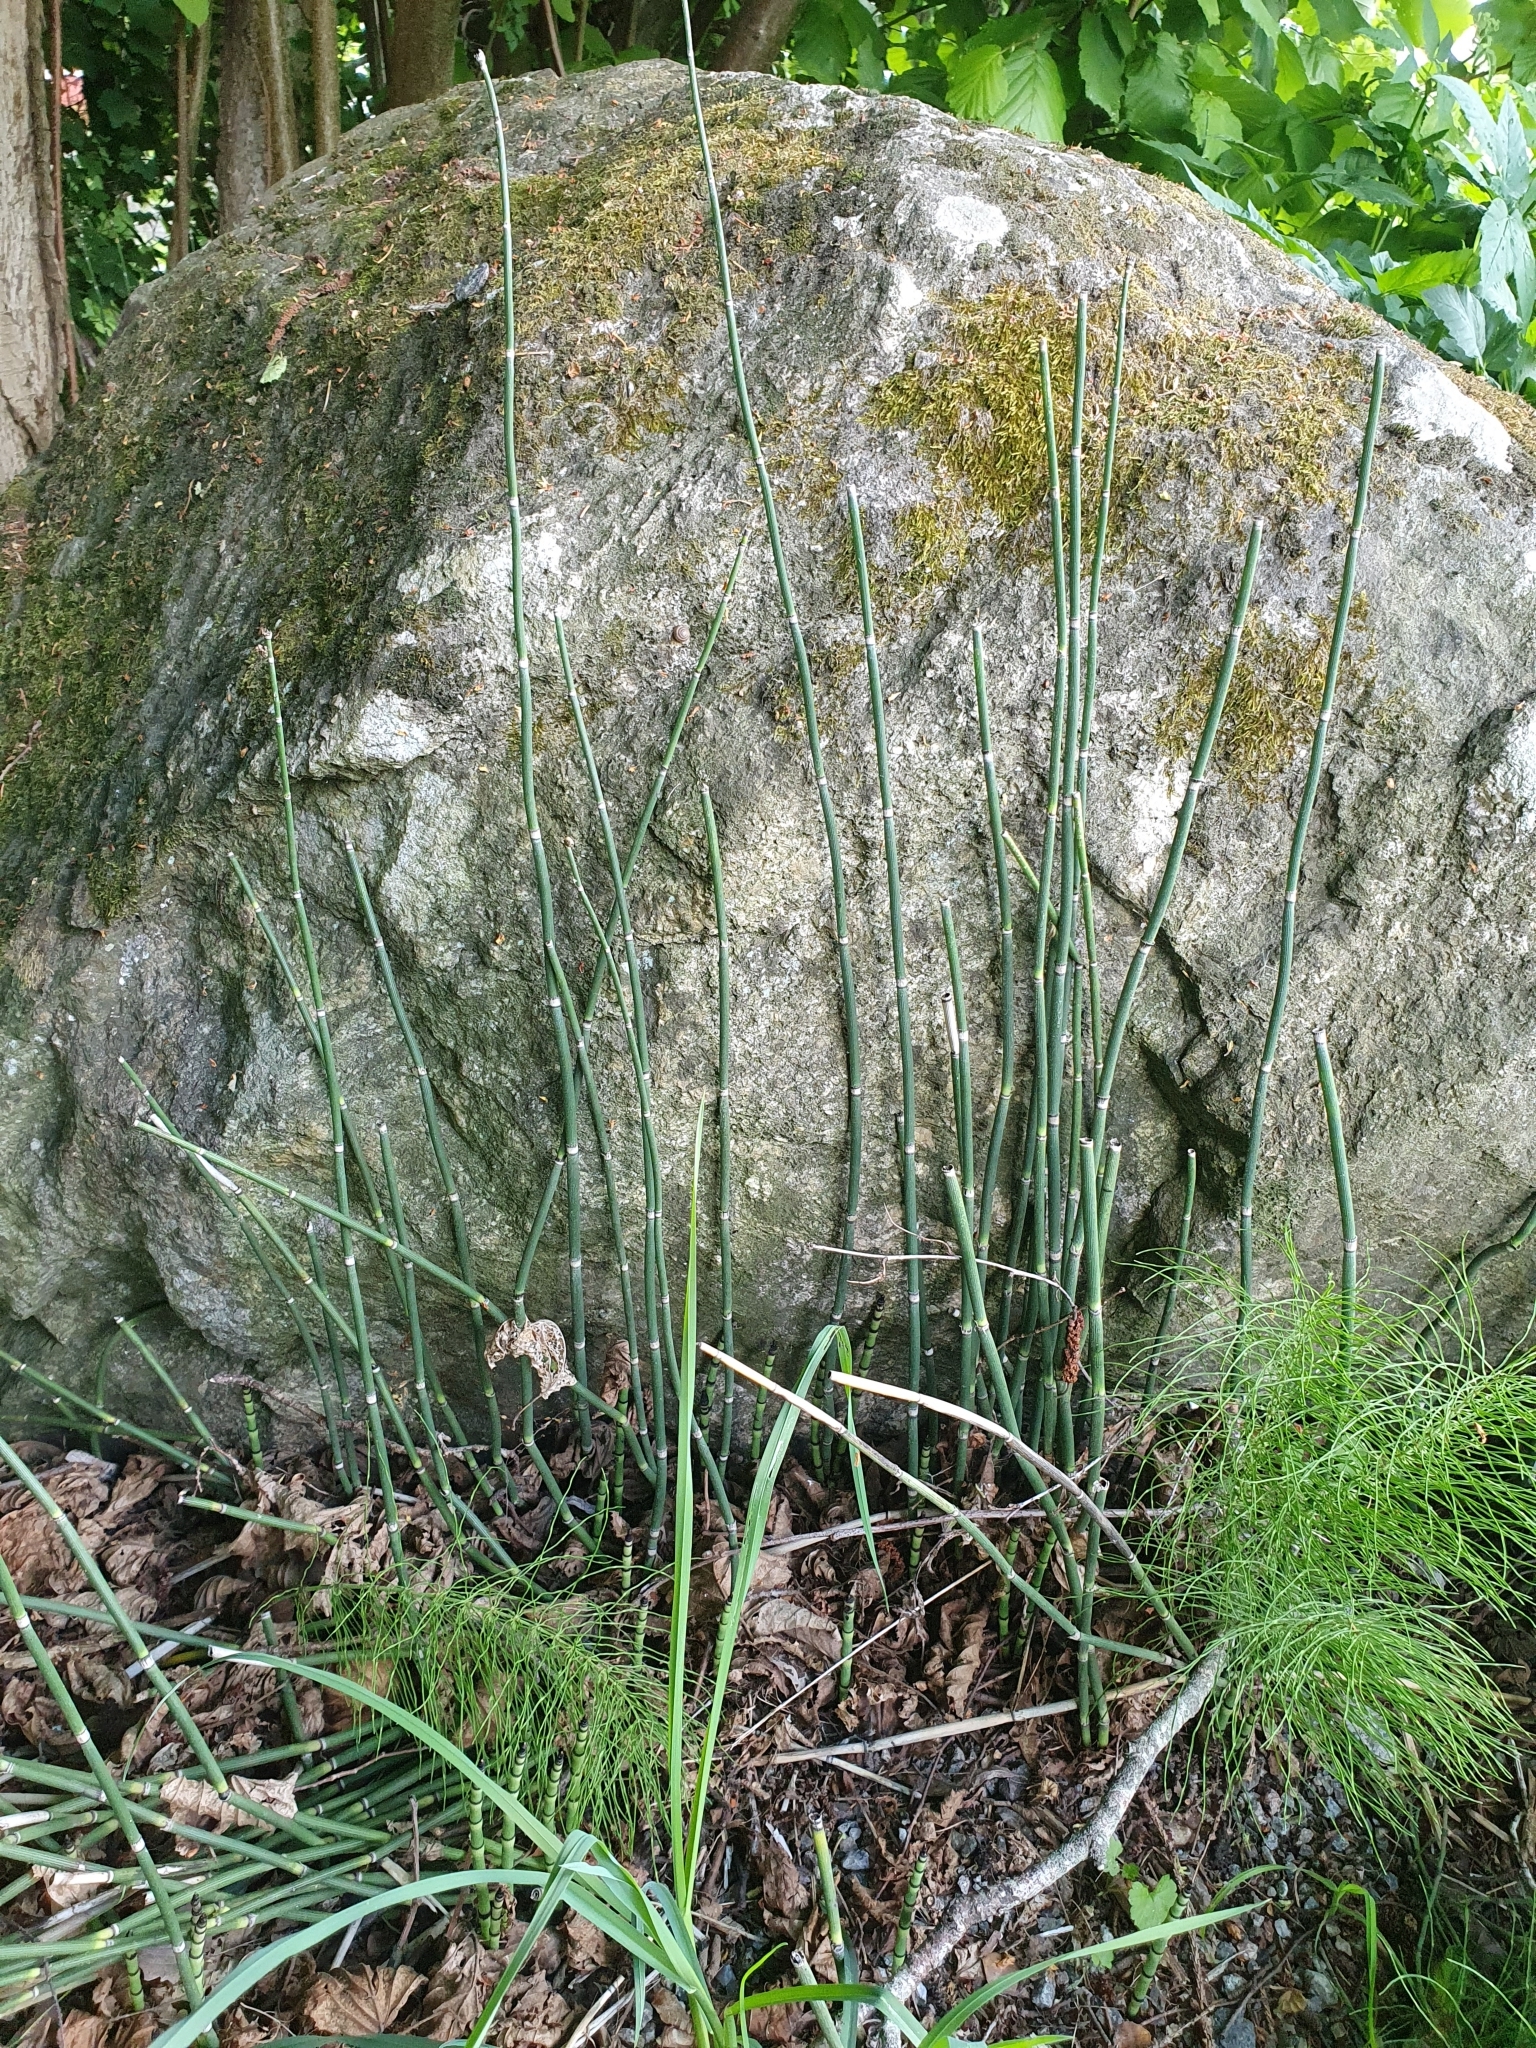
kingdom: Plantae
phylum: Tracheophyta
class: Polypodiopsida
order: Equisetales
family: Equisetaceae
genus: Equisetum
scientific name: Equisetum hyemale
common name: Rough horsetail
